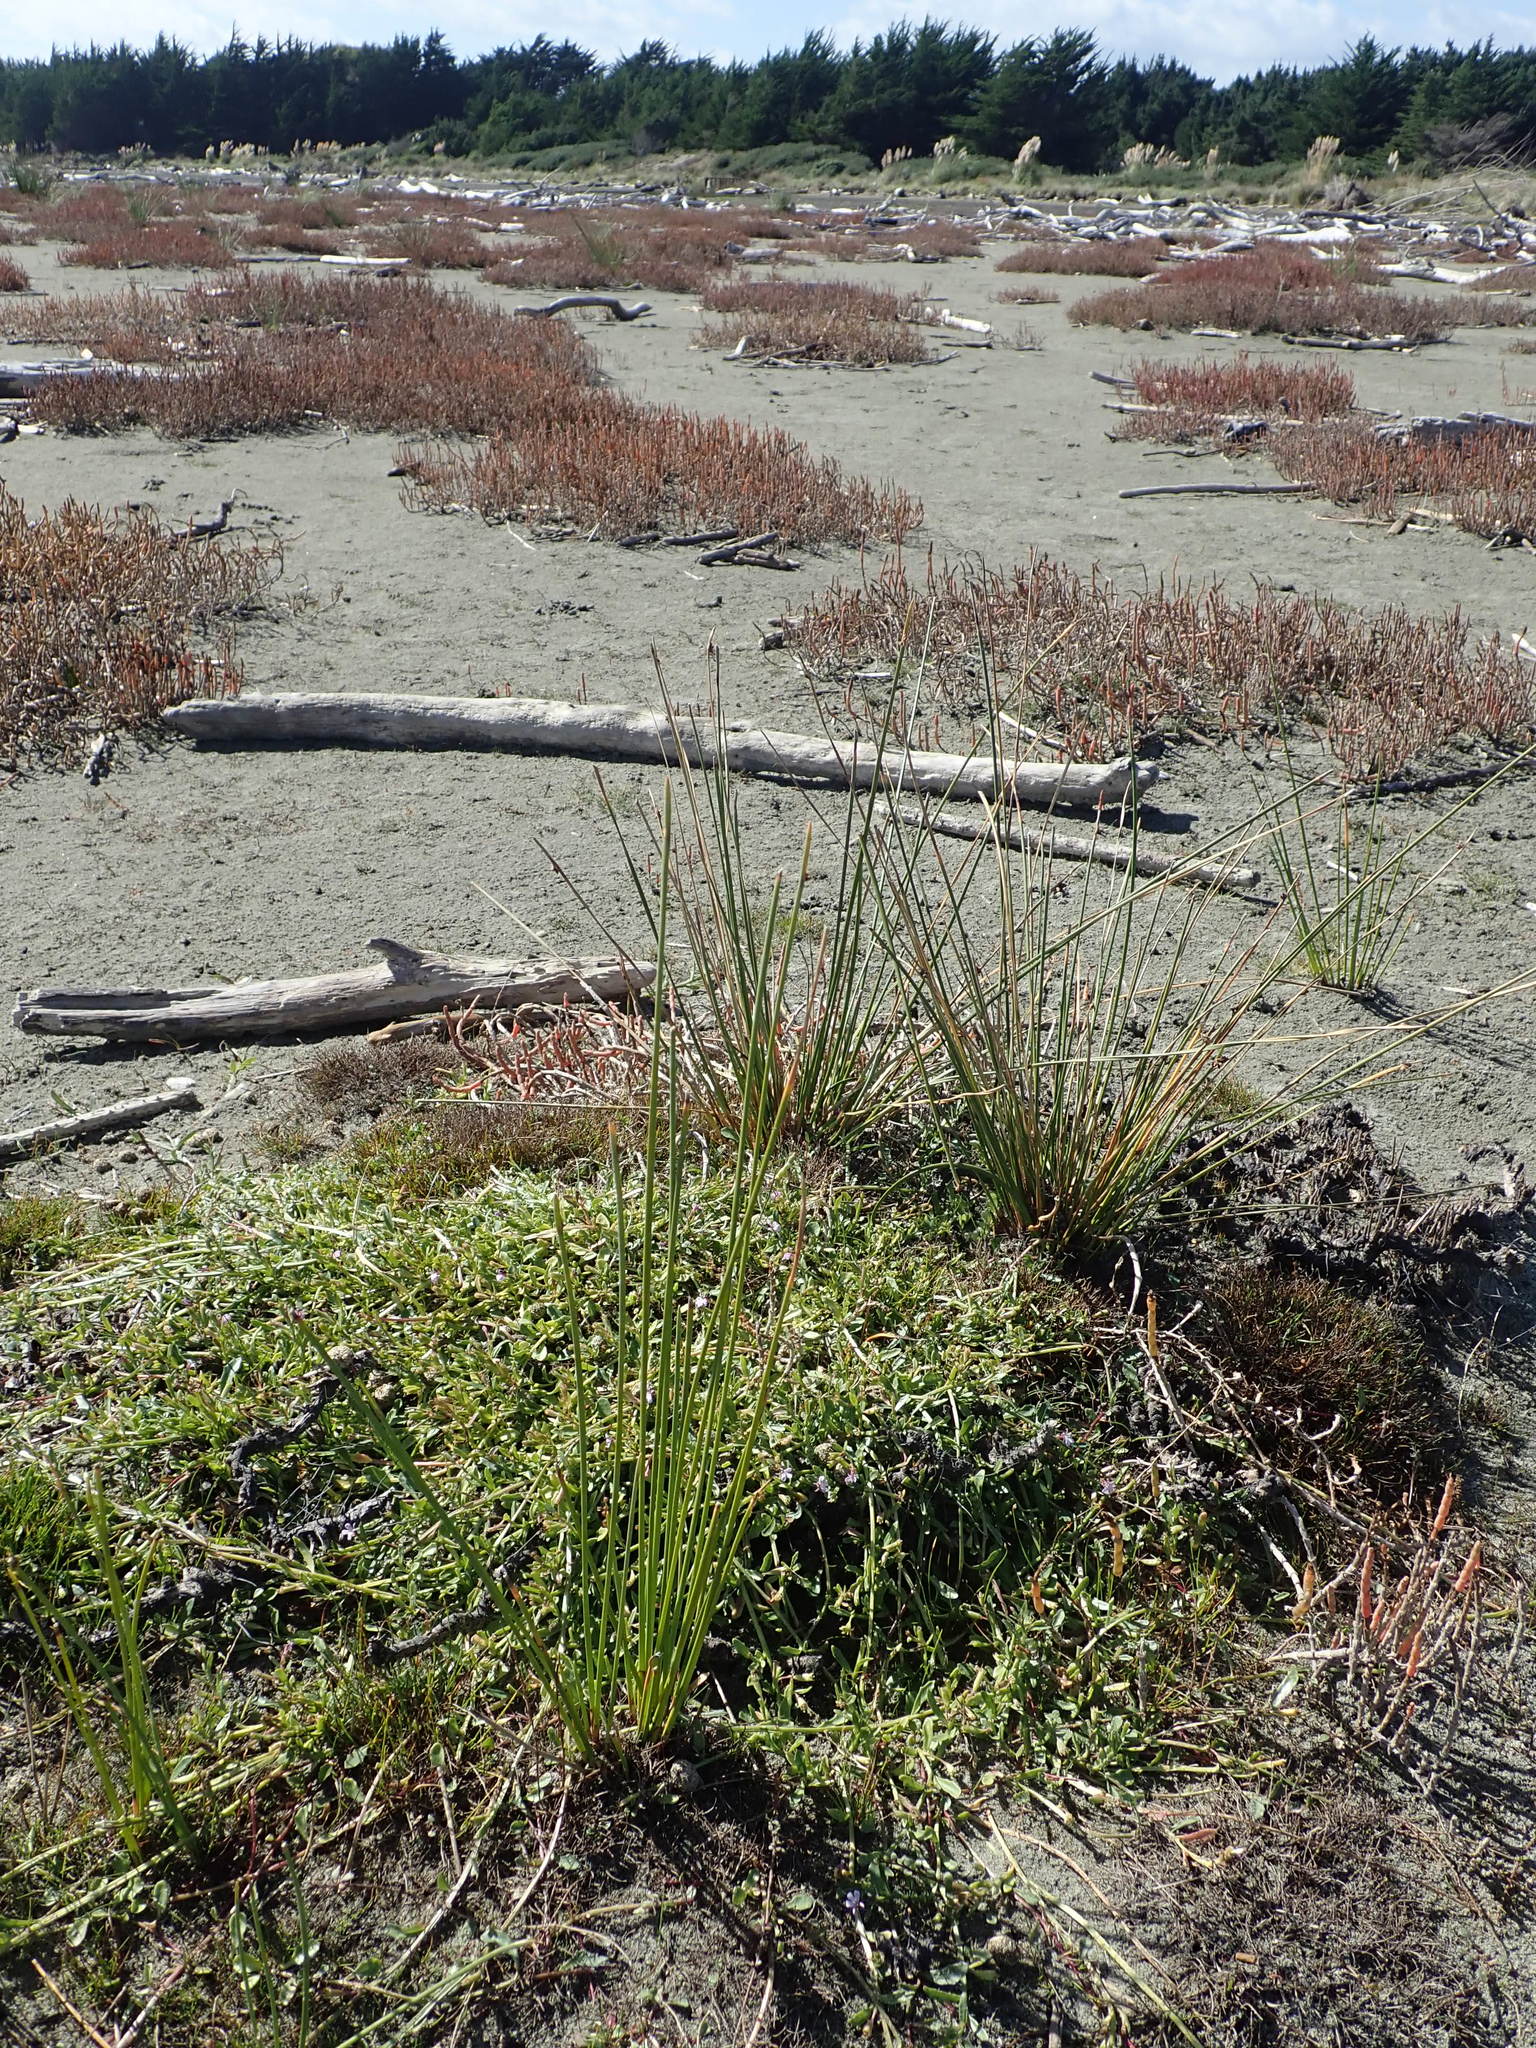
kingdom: Plantae
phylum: Tracheophyta
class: Magnoliopsida
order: Asterales
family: Campanulaceae
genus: Lobelia
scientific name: Lobelia anceps
